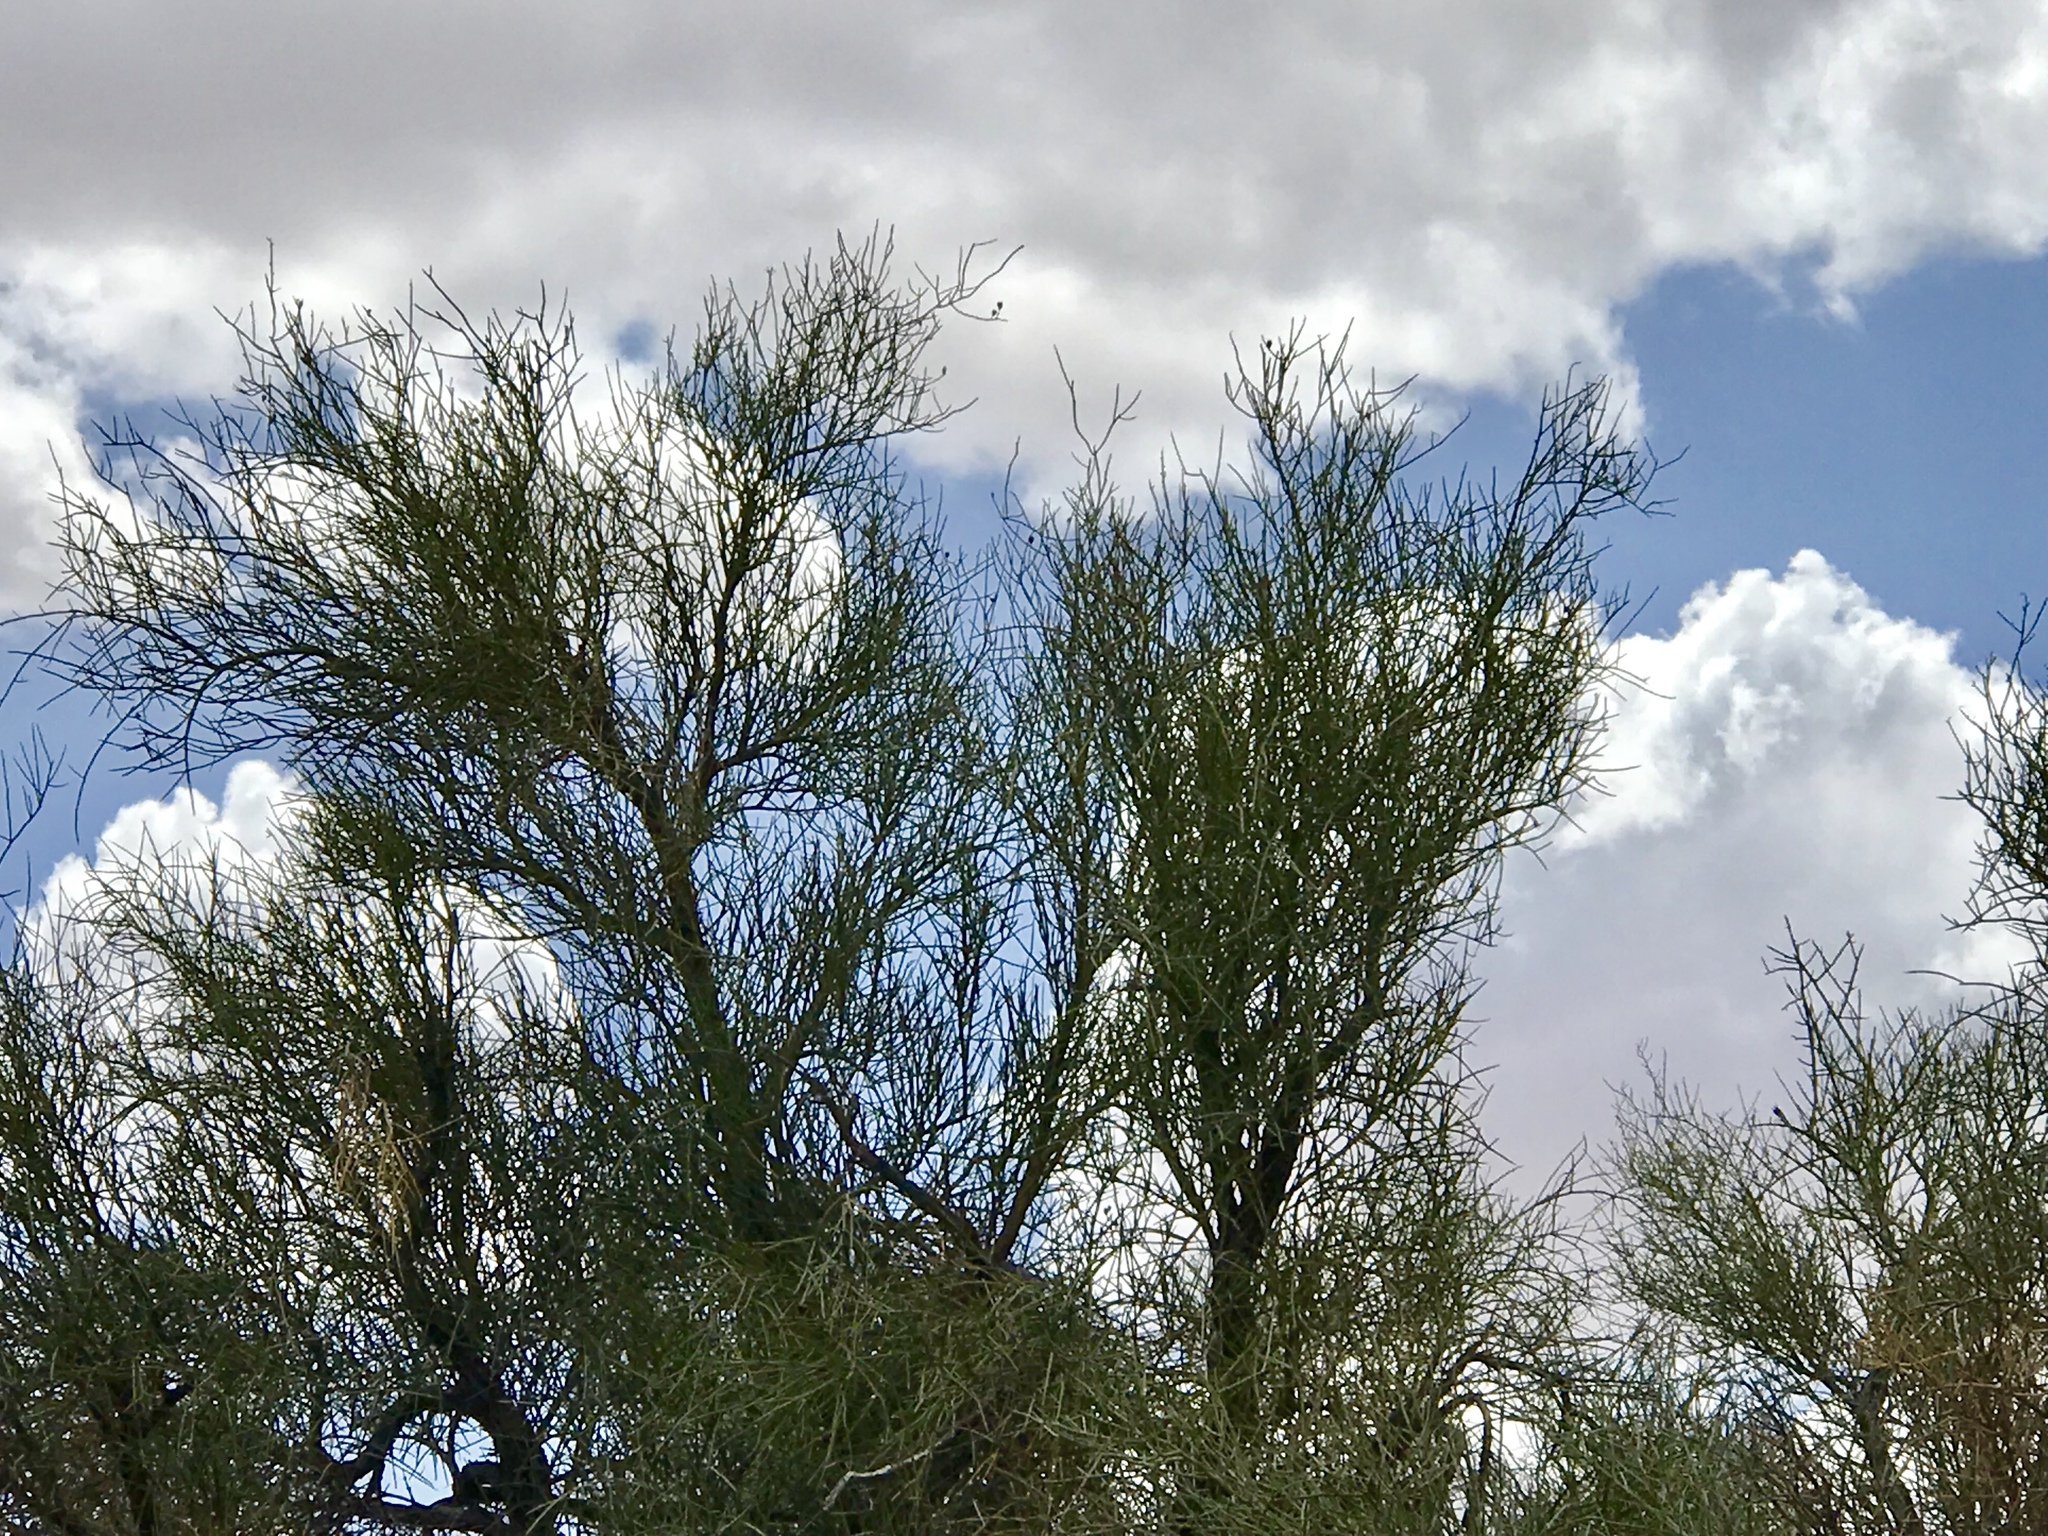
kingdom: Plantae
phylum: Tracheophyta
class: Magnoliopsida
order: Celastrales
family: Celastraceae
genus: Canotia
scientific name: Canotia holacantha
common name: Crucifixion thorns
